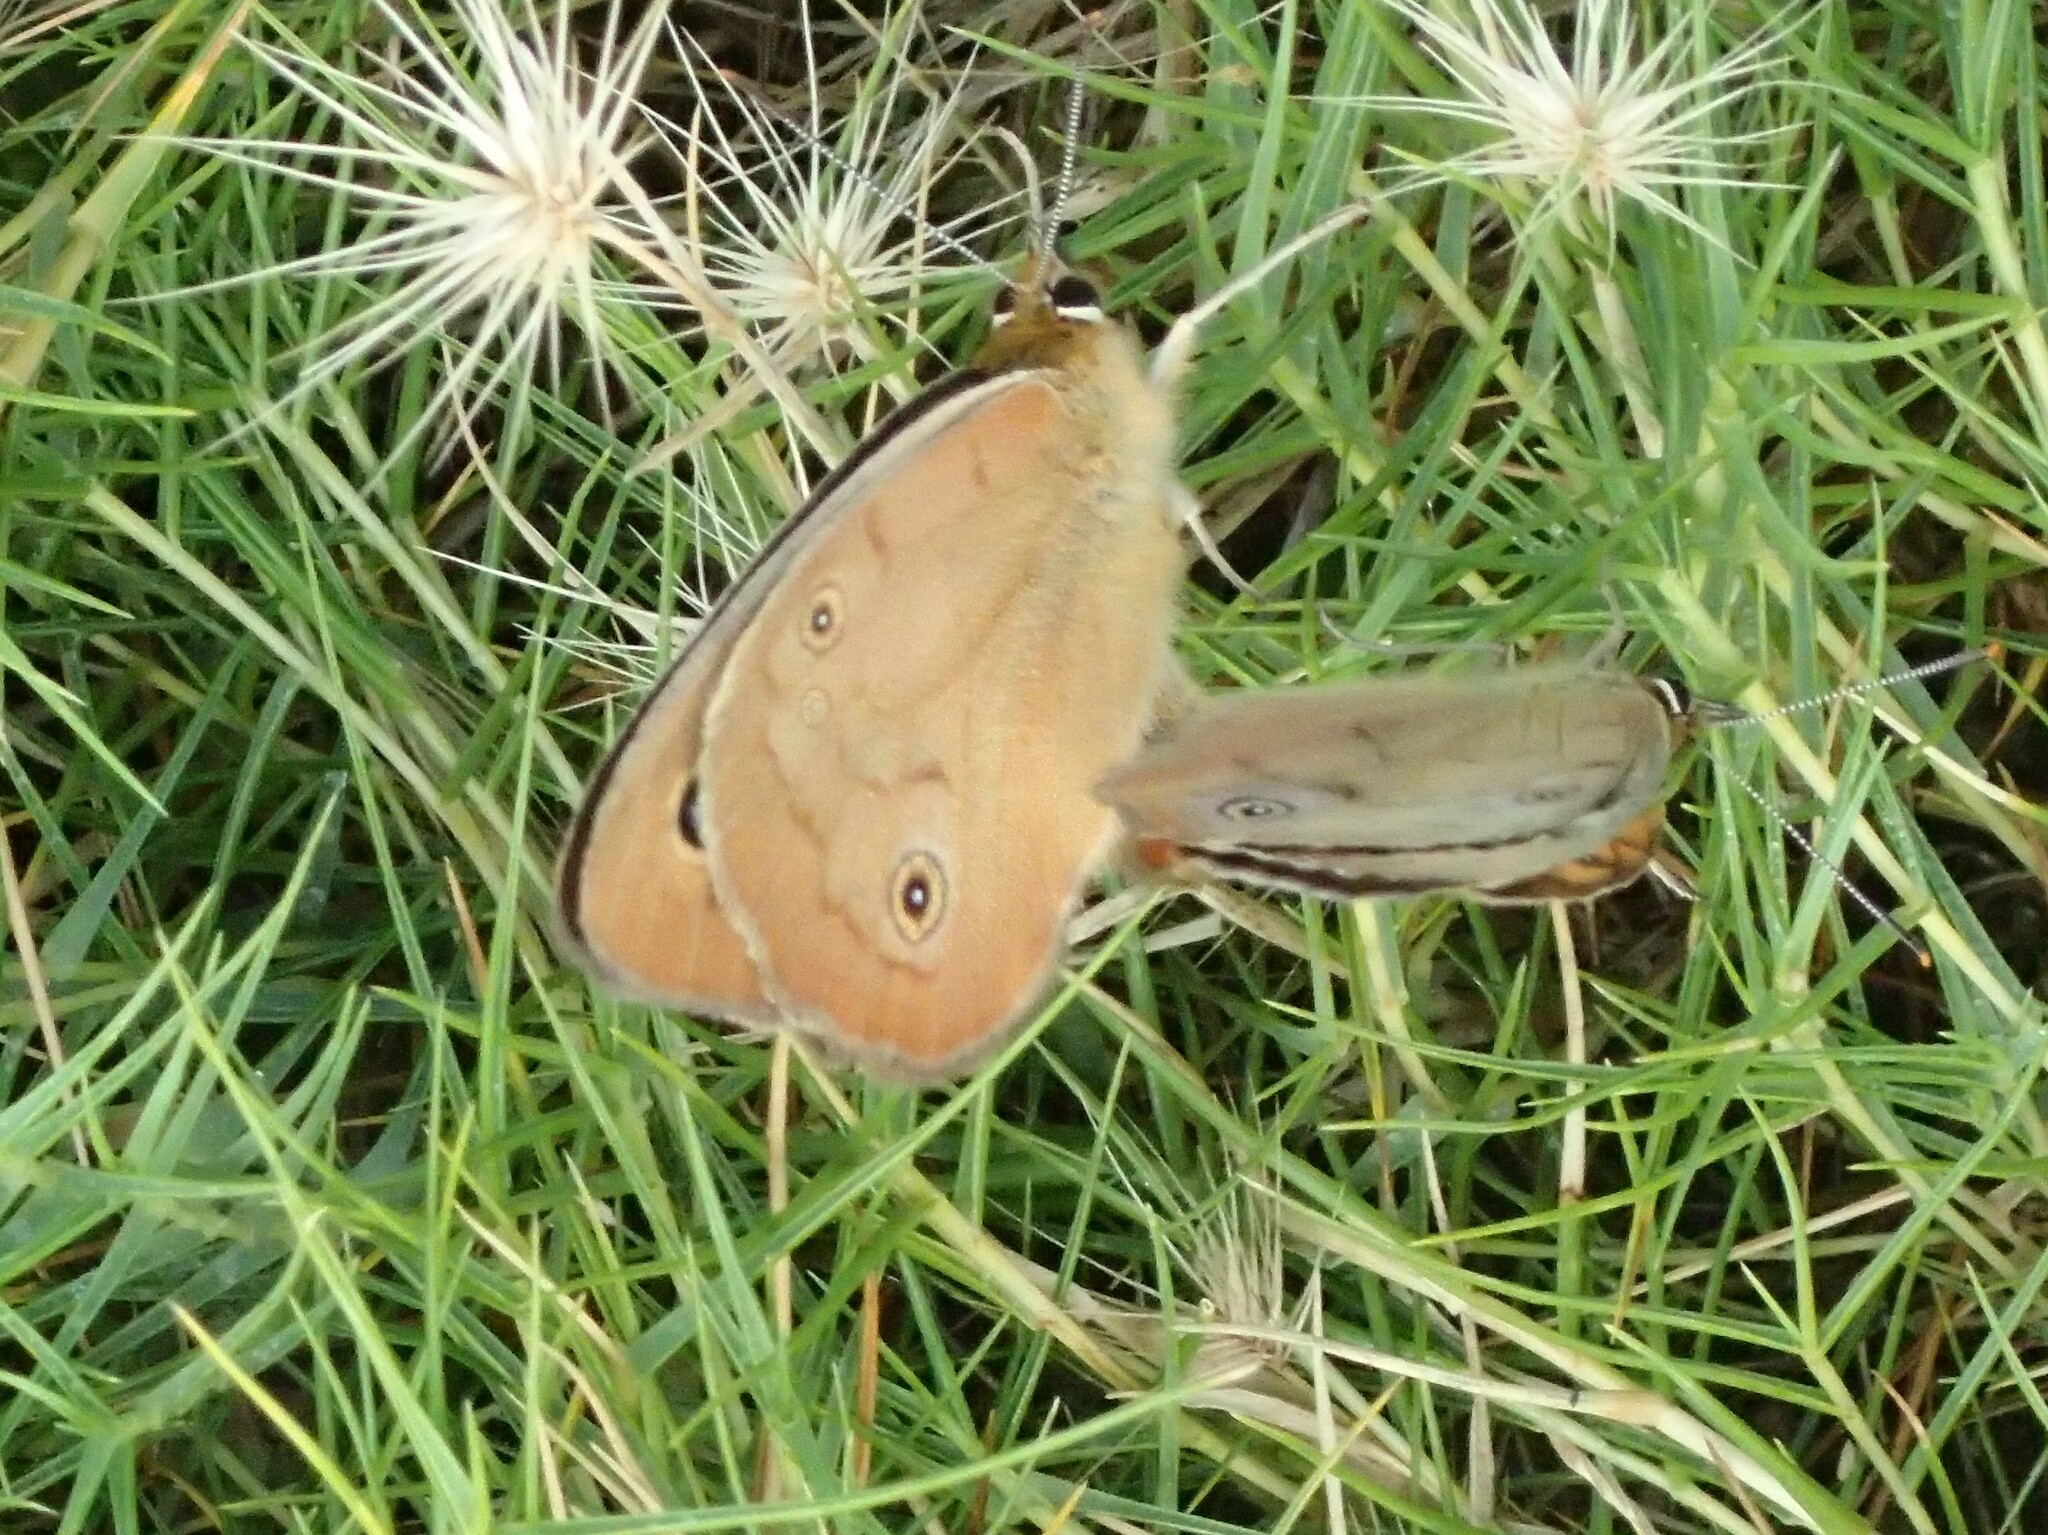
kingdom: Animalia
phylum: Arthropoda
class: Insecta
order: Lepidoptera
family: Nymphalidae
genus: Heteronympha
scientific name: Heteronympha penelope
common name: Shouldered brown
